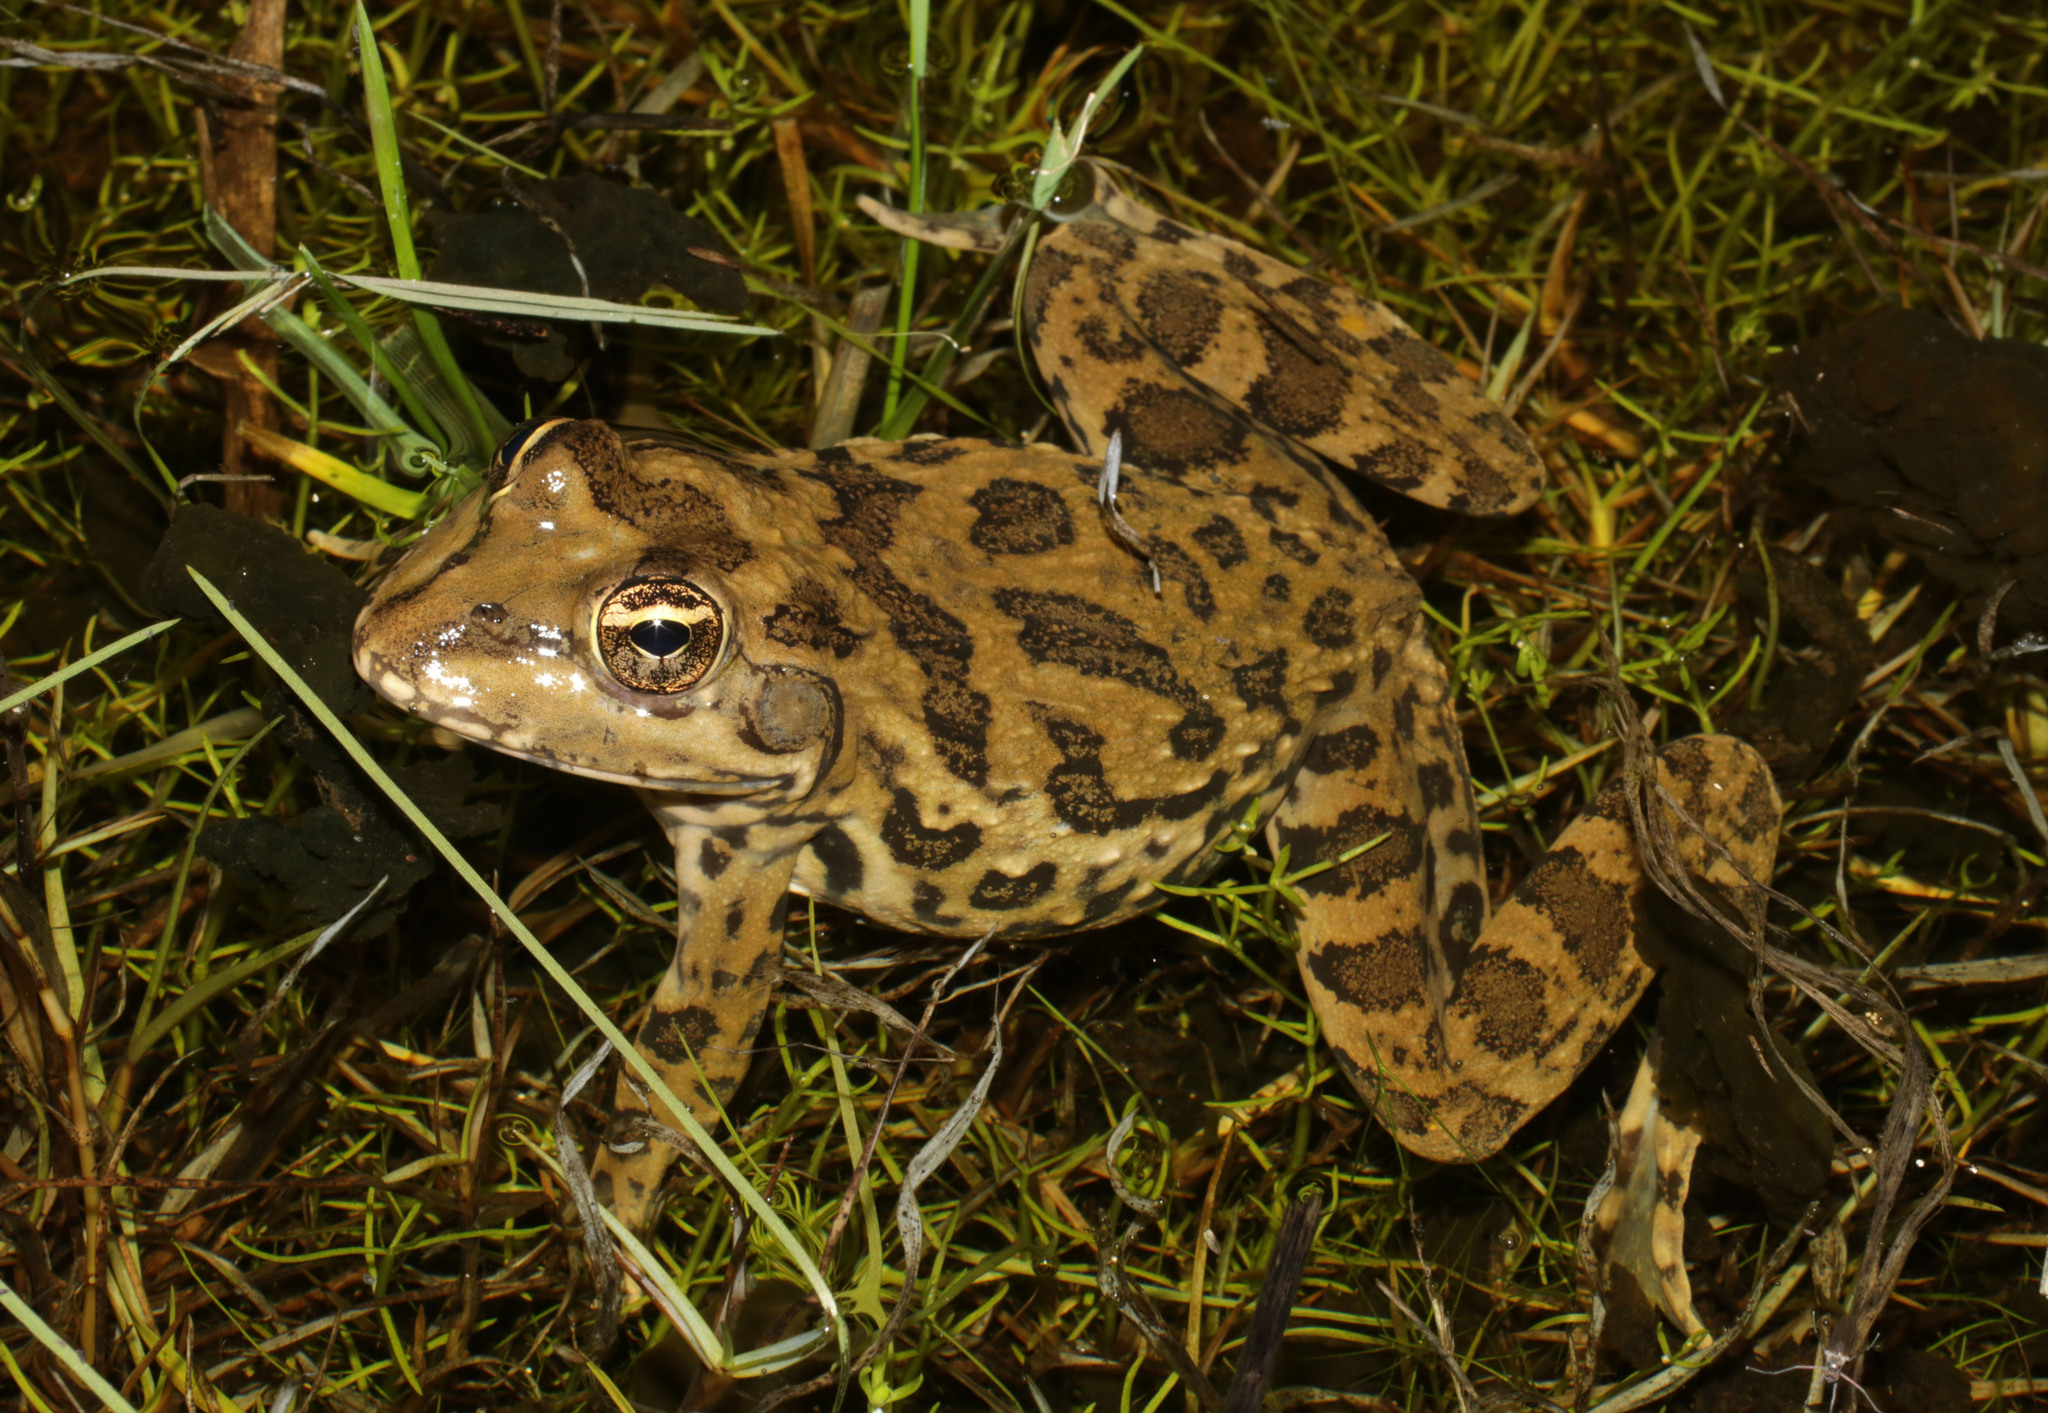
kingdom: Animalia
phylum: Chordata
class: Amphibia
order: Anura
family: Pyxicephalidae
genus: Amietia
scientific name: Amietia fuscigula
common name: Cape rana
